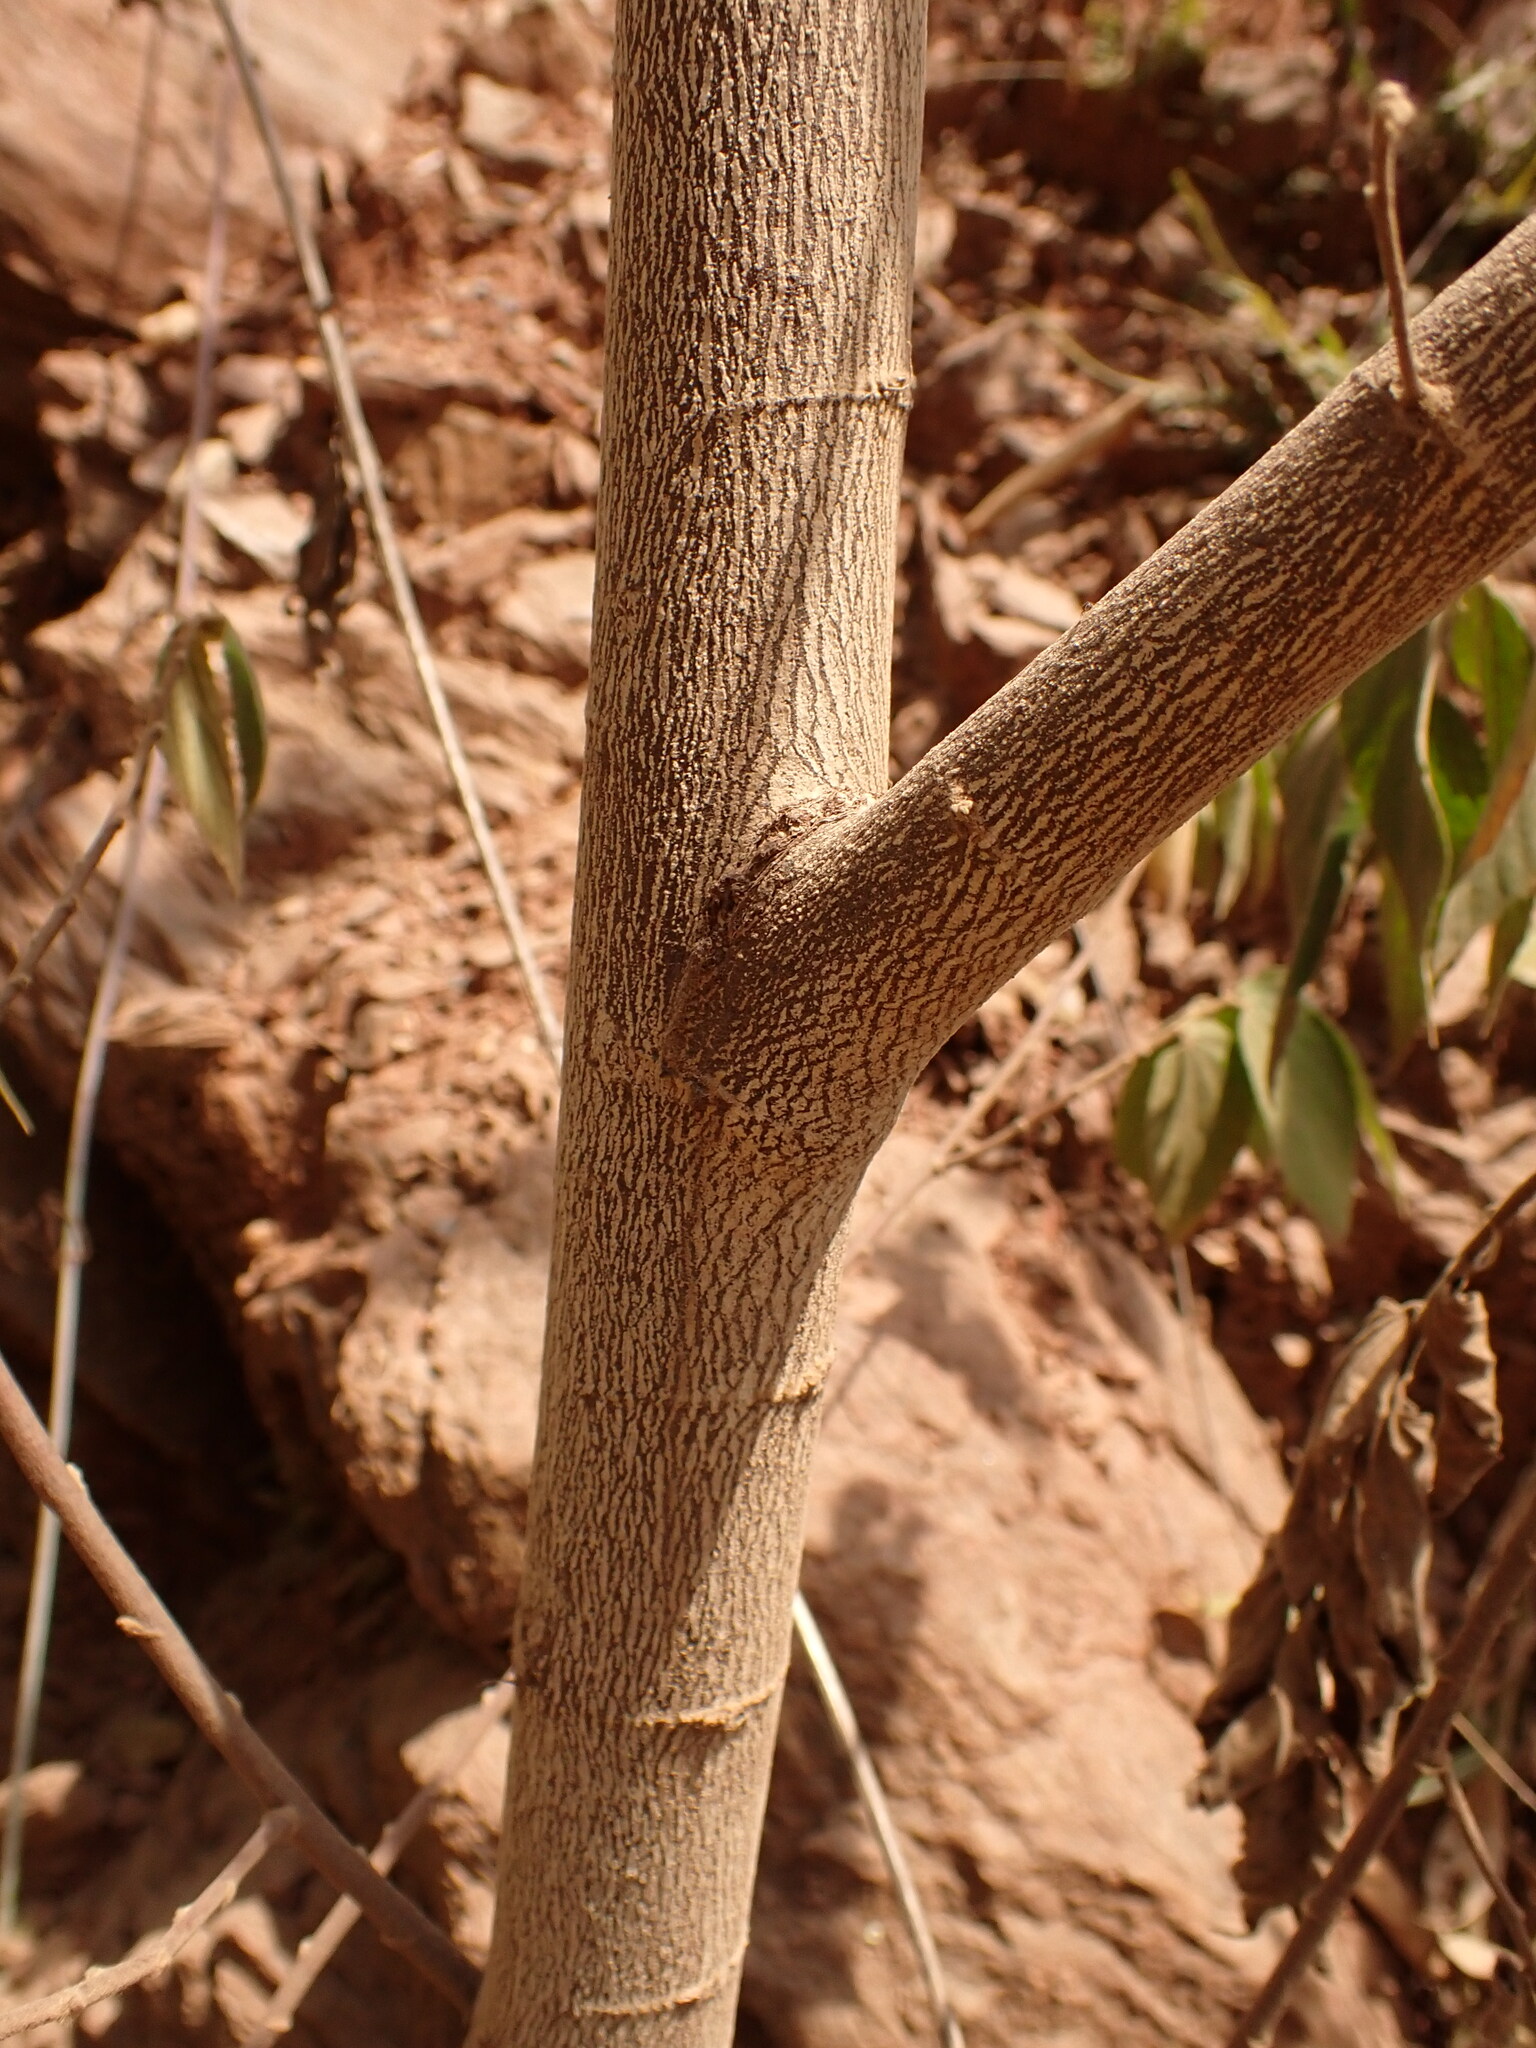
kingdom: Plantae
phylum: Tracheophyta
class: Magnoliopsida
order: Malvales
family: Muntingiaceae
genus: Muntingia
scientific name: Muntingia calabura
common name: Strawberrytree
